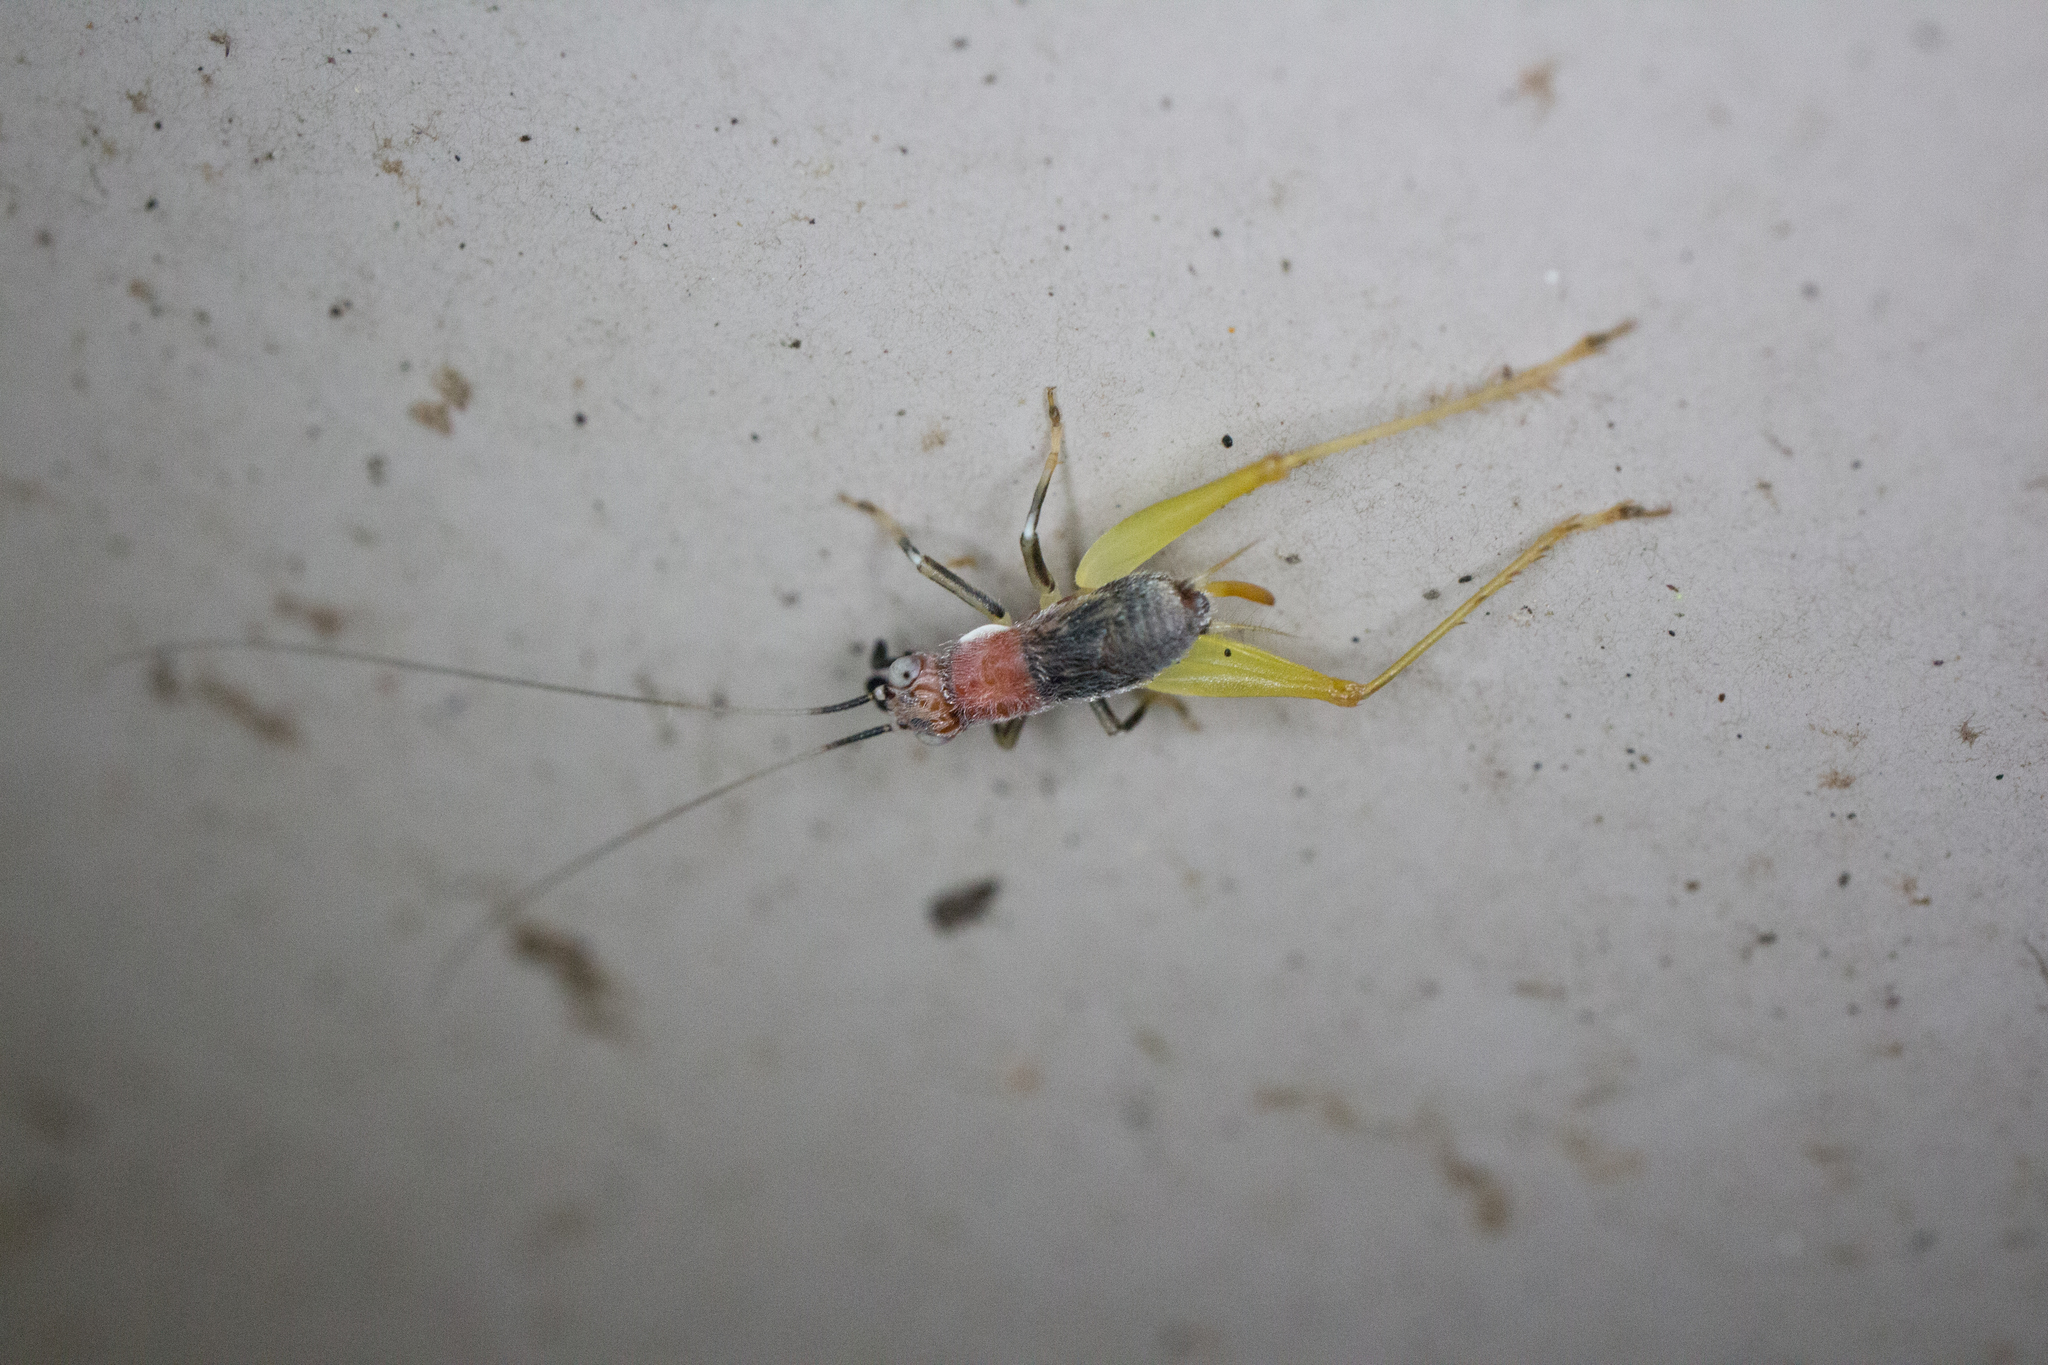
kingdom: Animalia
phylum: Arthropoda
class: Insecta
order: Orthoptera
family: Trigonidiidae
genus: Phyllopalpus
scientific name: Phyllopalpus pulchellus
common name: Handsome trig
